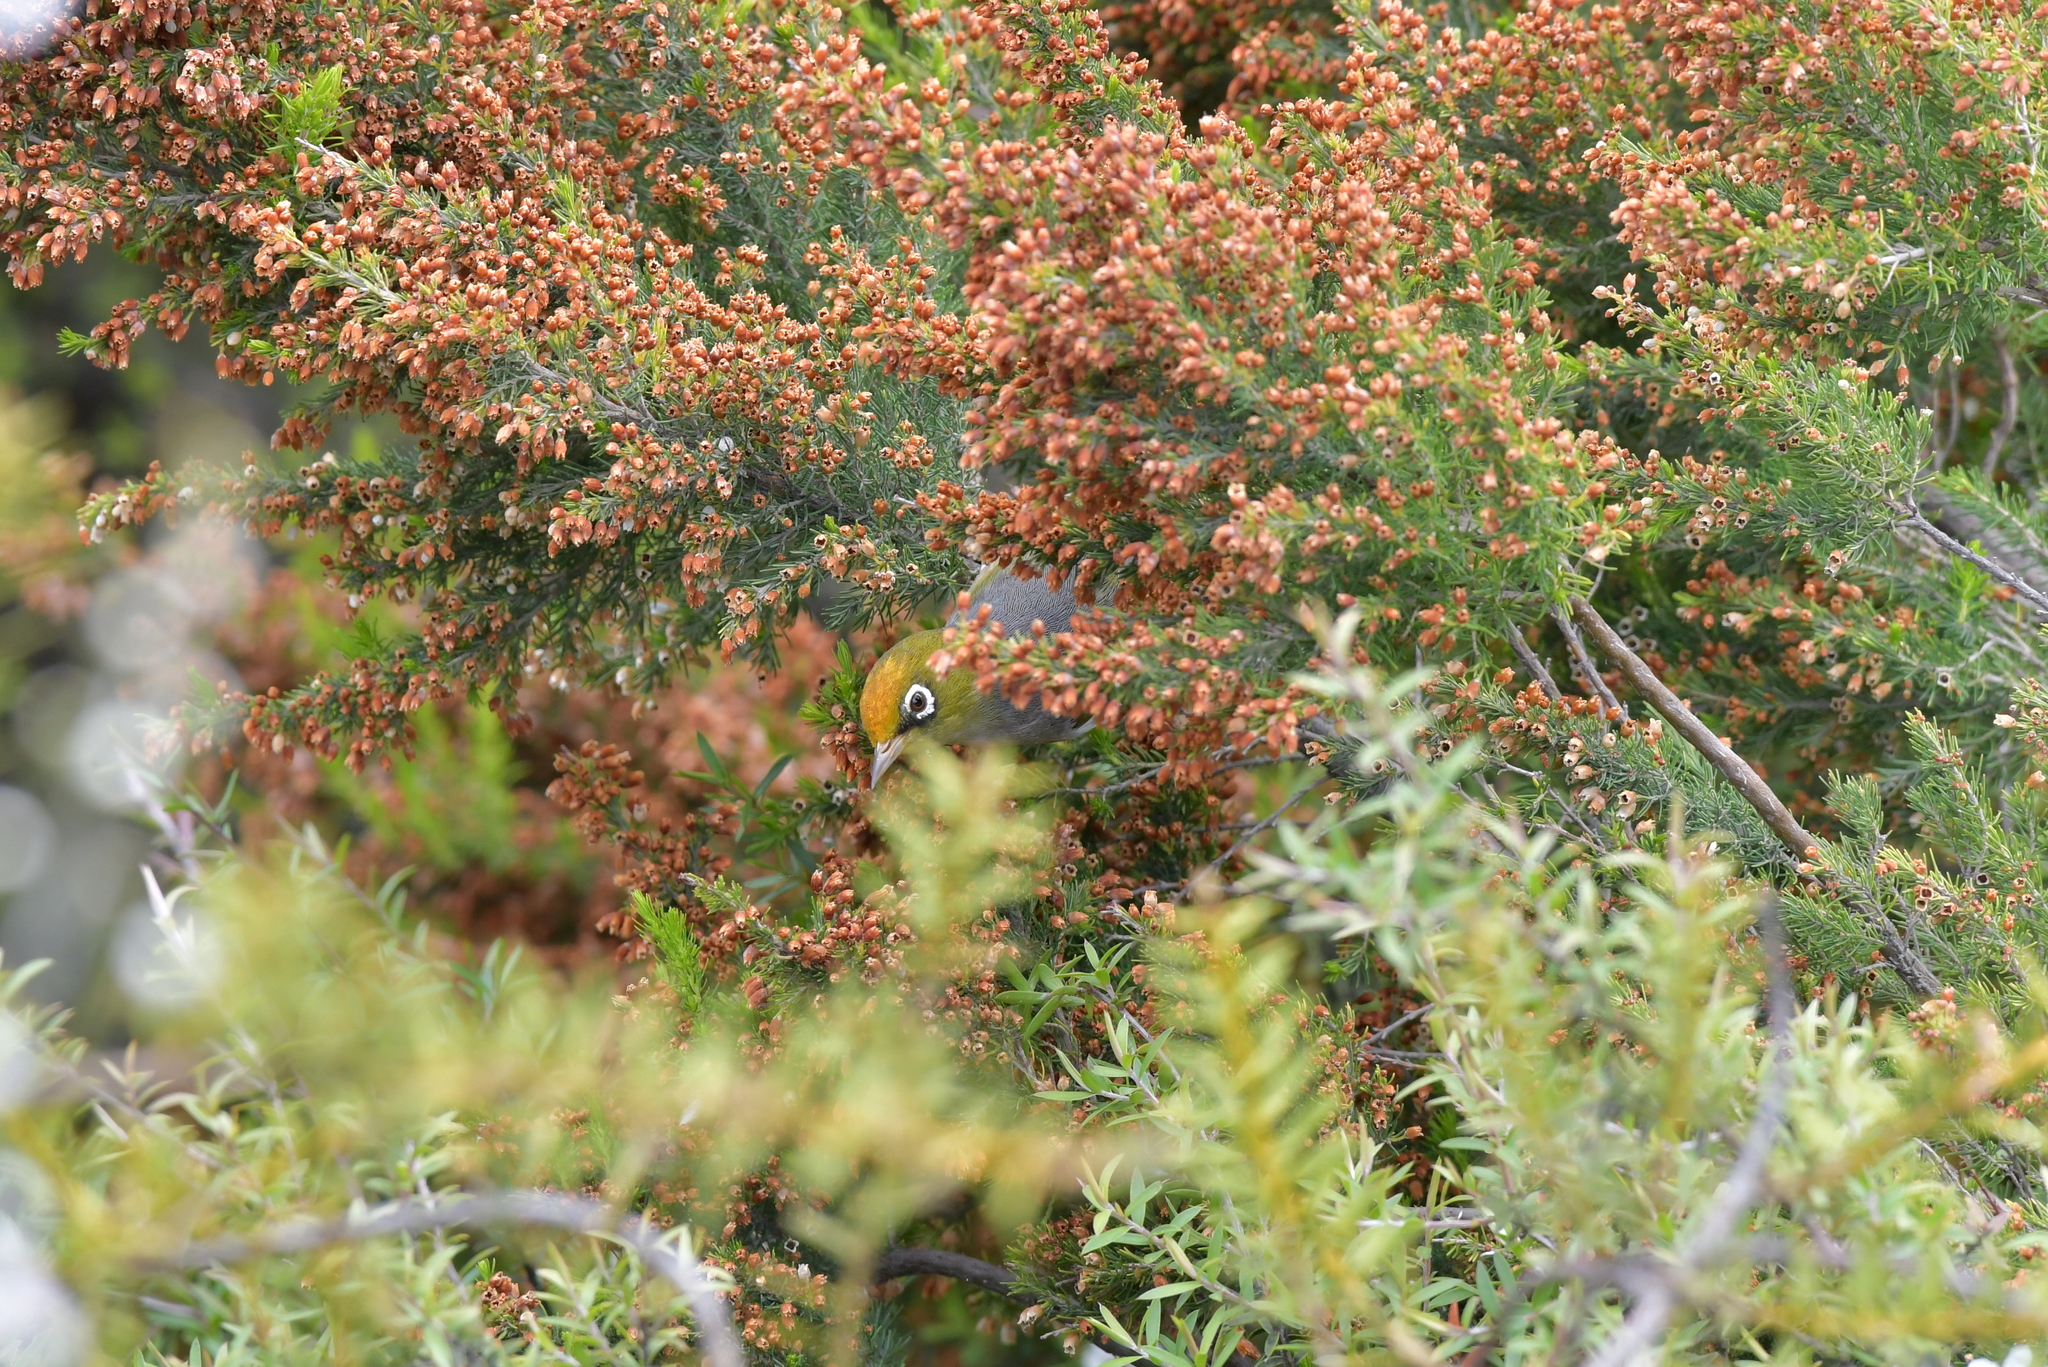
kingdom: Animalia
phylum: Chordata
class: Aves
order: Passeriformes
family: Zosteropidae
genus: Zosterops
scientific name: Zosterops lateralis
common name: Silvereye
